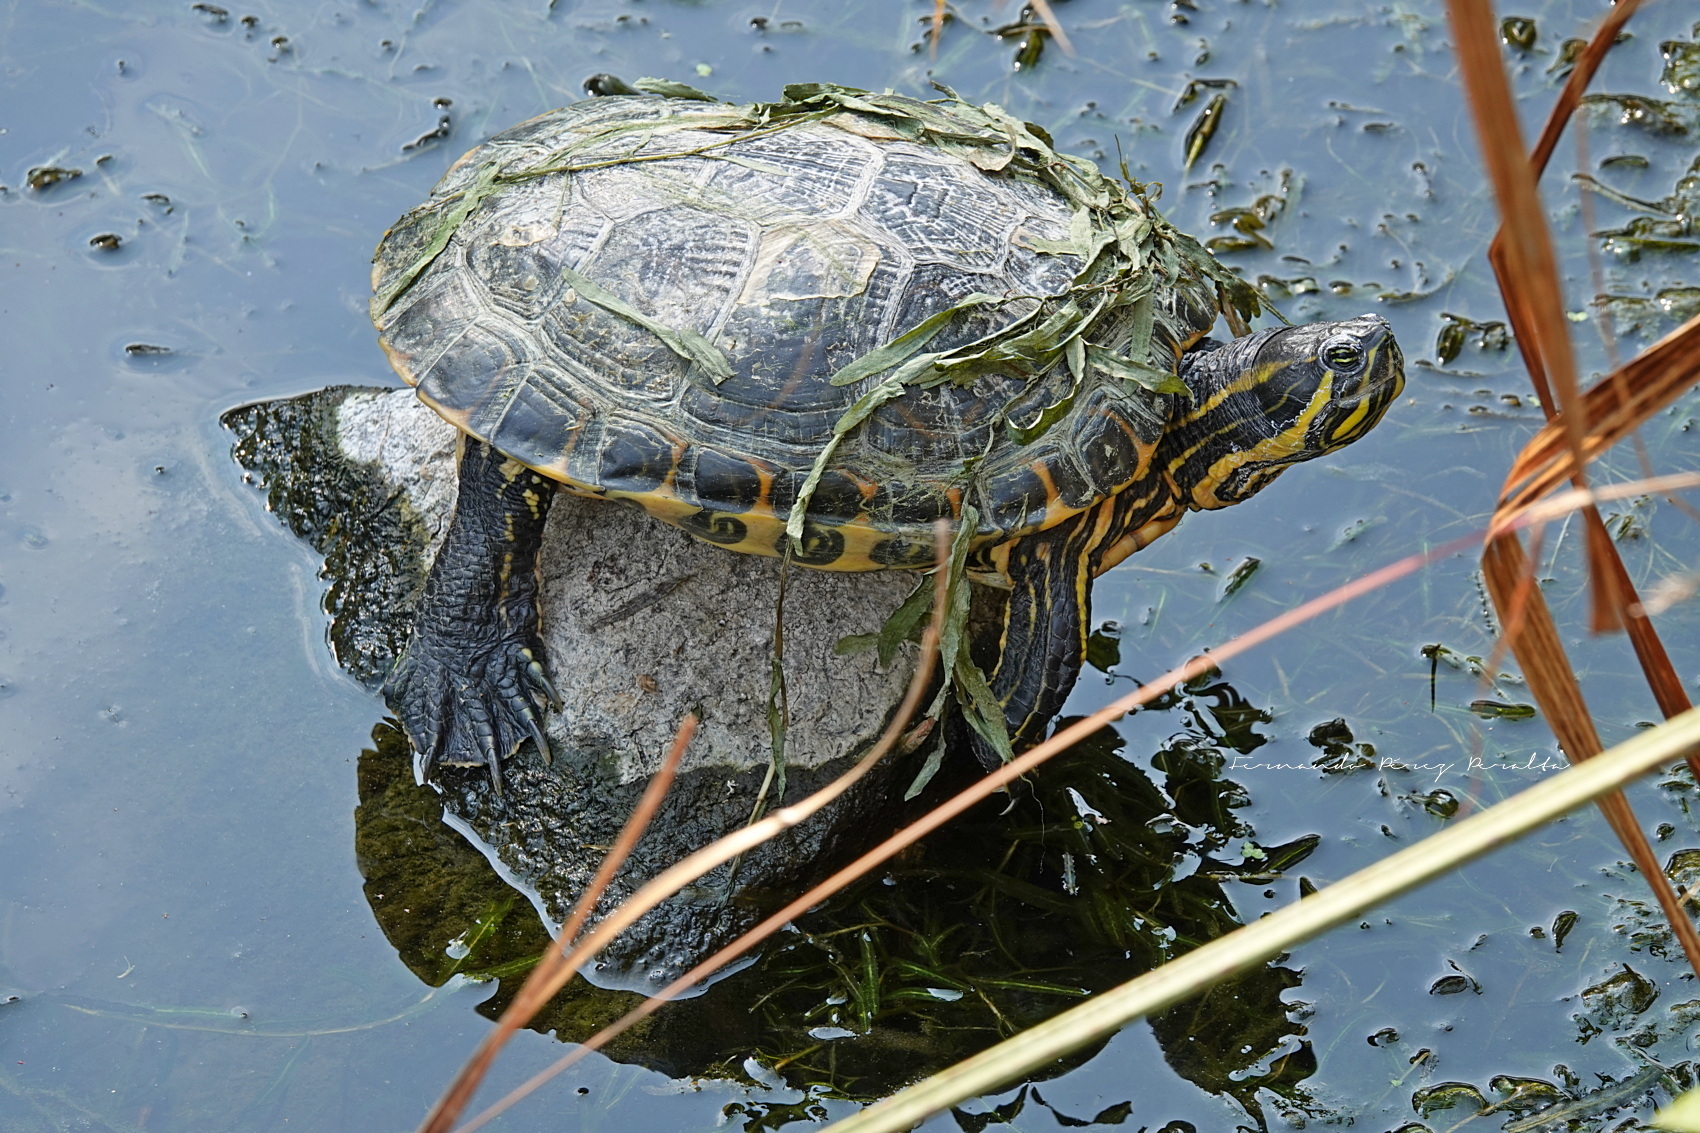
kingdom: Animalia
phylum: Chordata
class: Testudines
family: Emydidae
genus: Trachemys
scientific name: Trachemys venusta
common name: Mesoamerican slider
